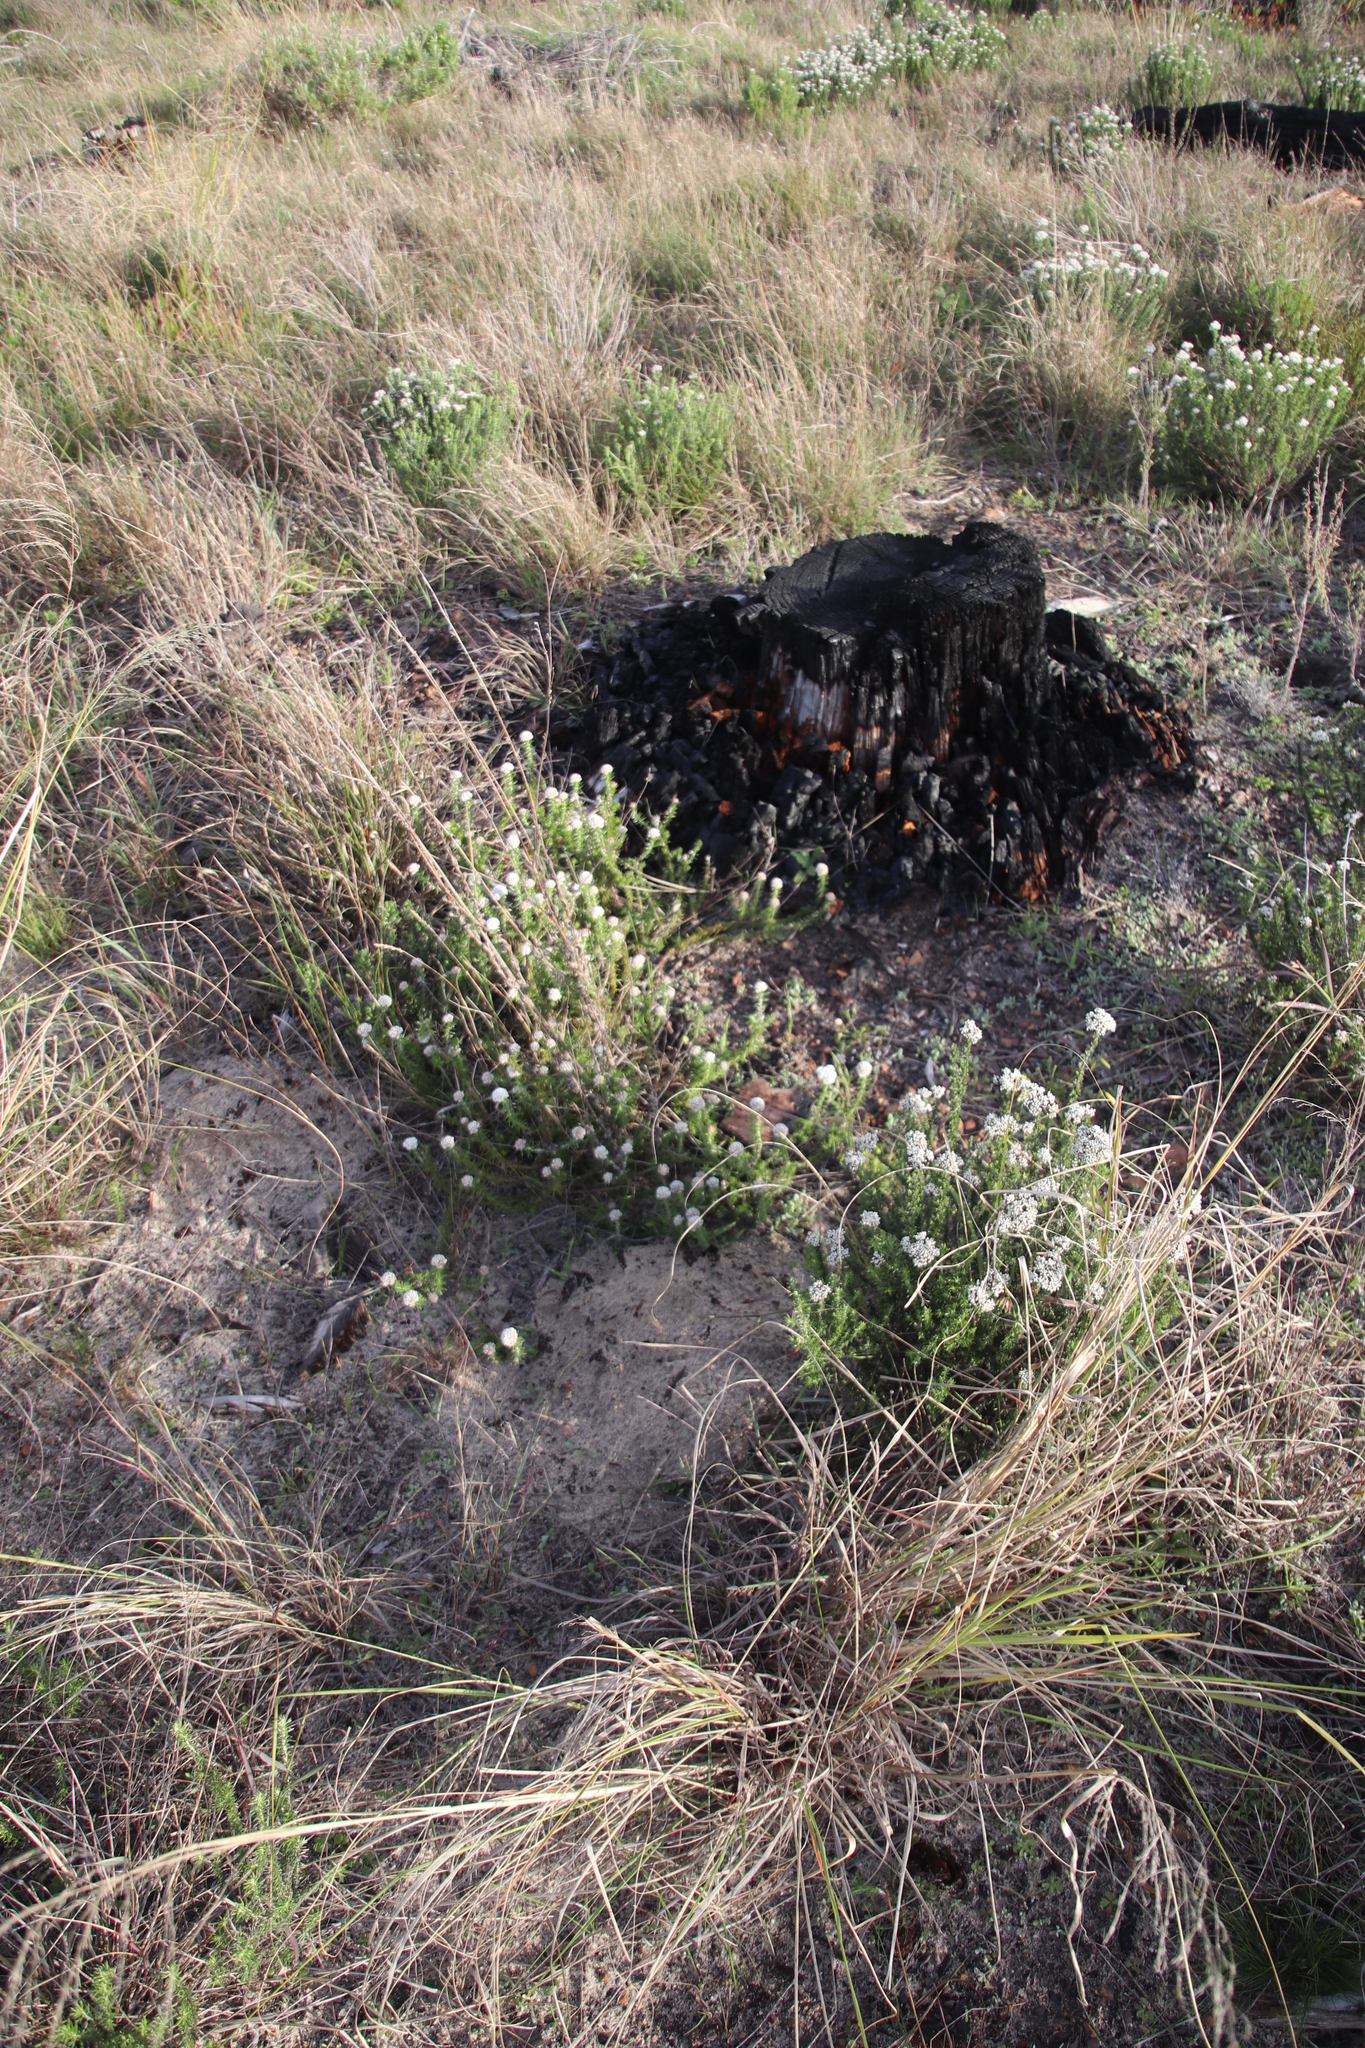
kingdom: Plantae
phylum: Tracheophyta
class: Magnoliopsida
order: Asterales
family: Asteraceae
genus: Metalasia
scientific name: Metalasia pulchella
